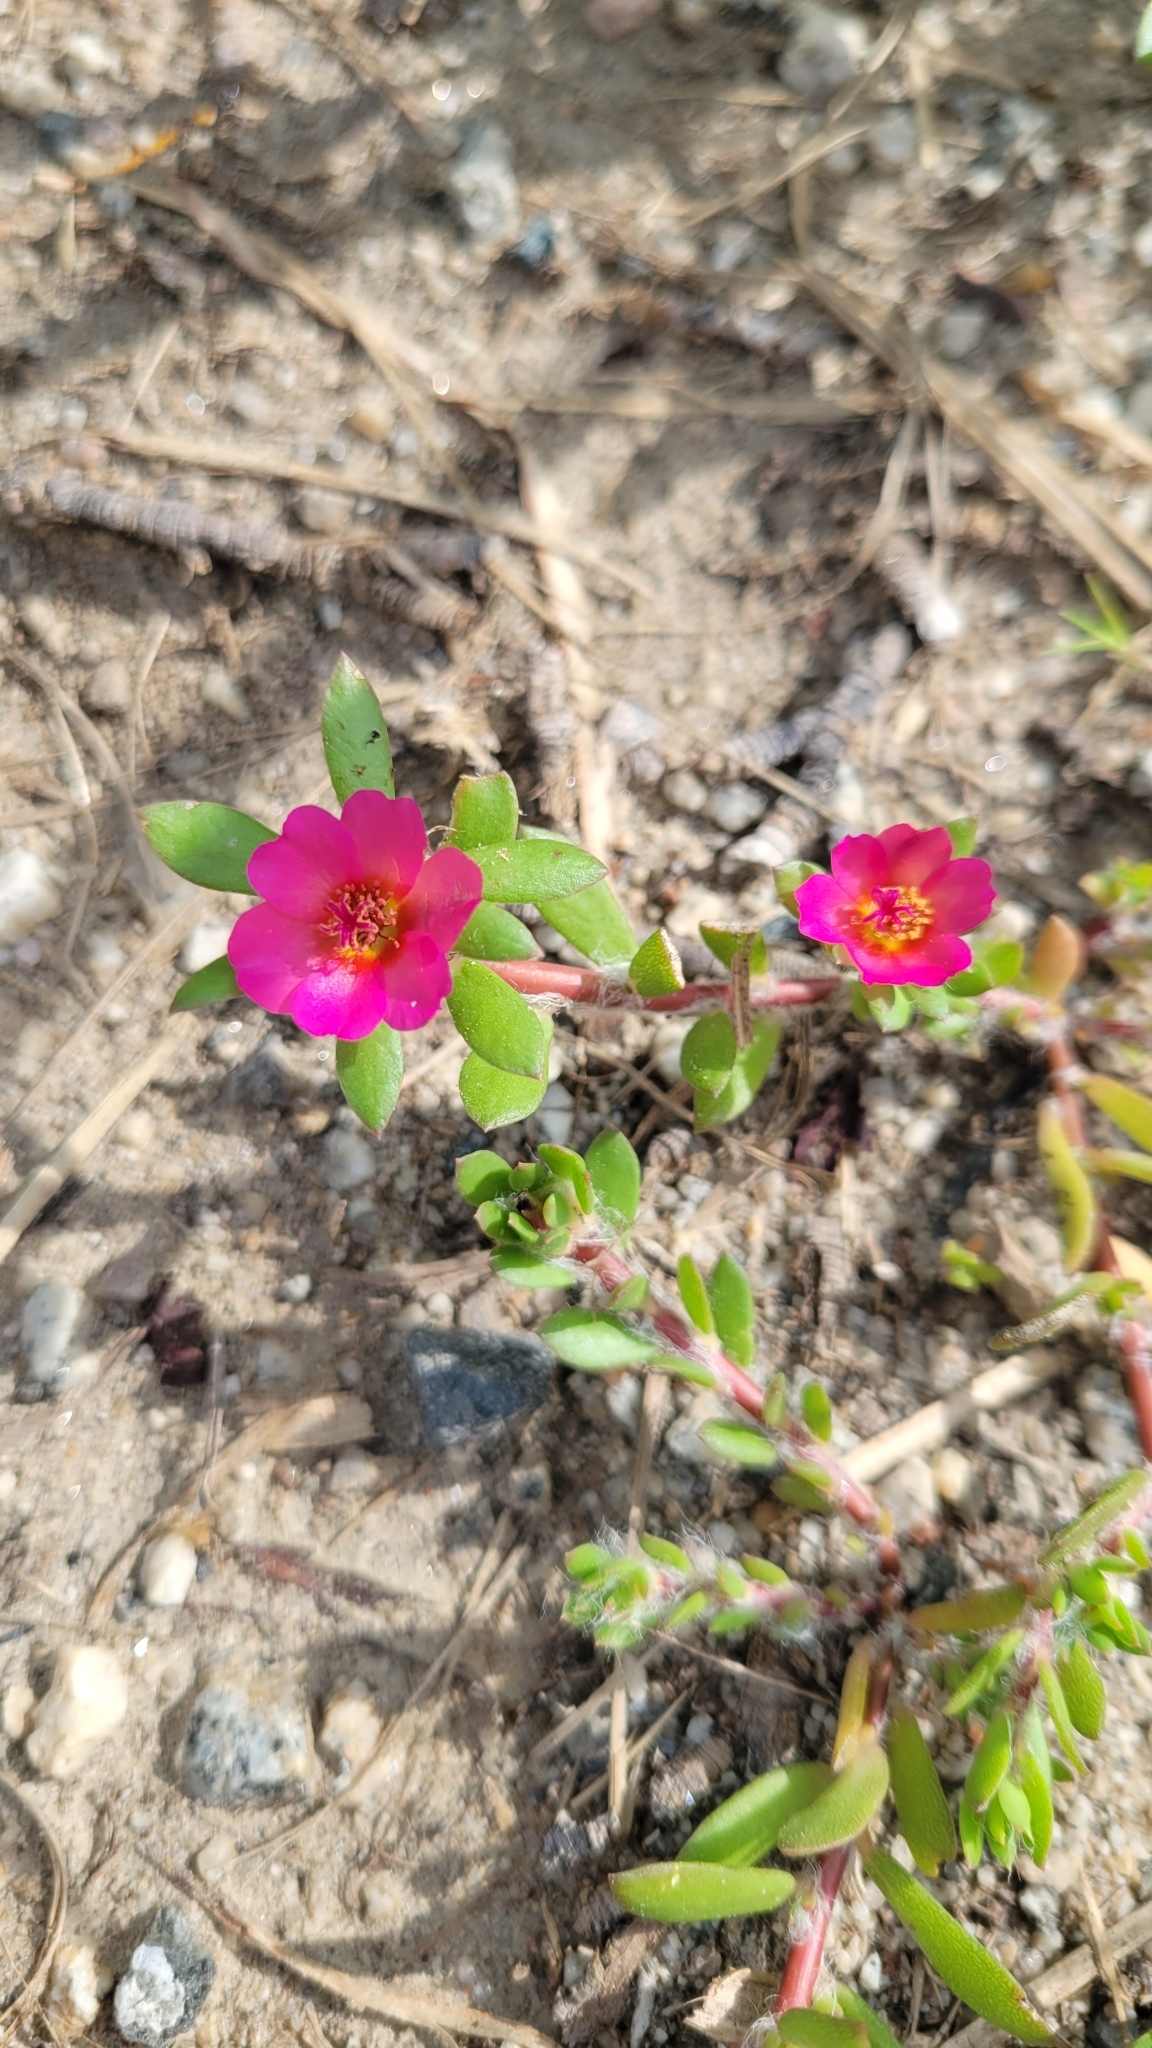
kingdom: Plantae
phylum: Tracheophyta
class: Magnoliopsida
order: Caryophyllales
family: Portulacaceae
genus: Portulaca
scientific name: Portulaca amilis
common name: Paraguayan purslane
